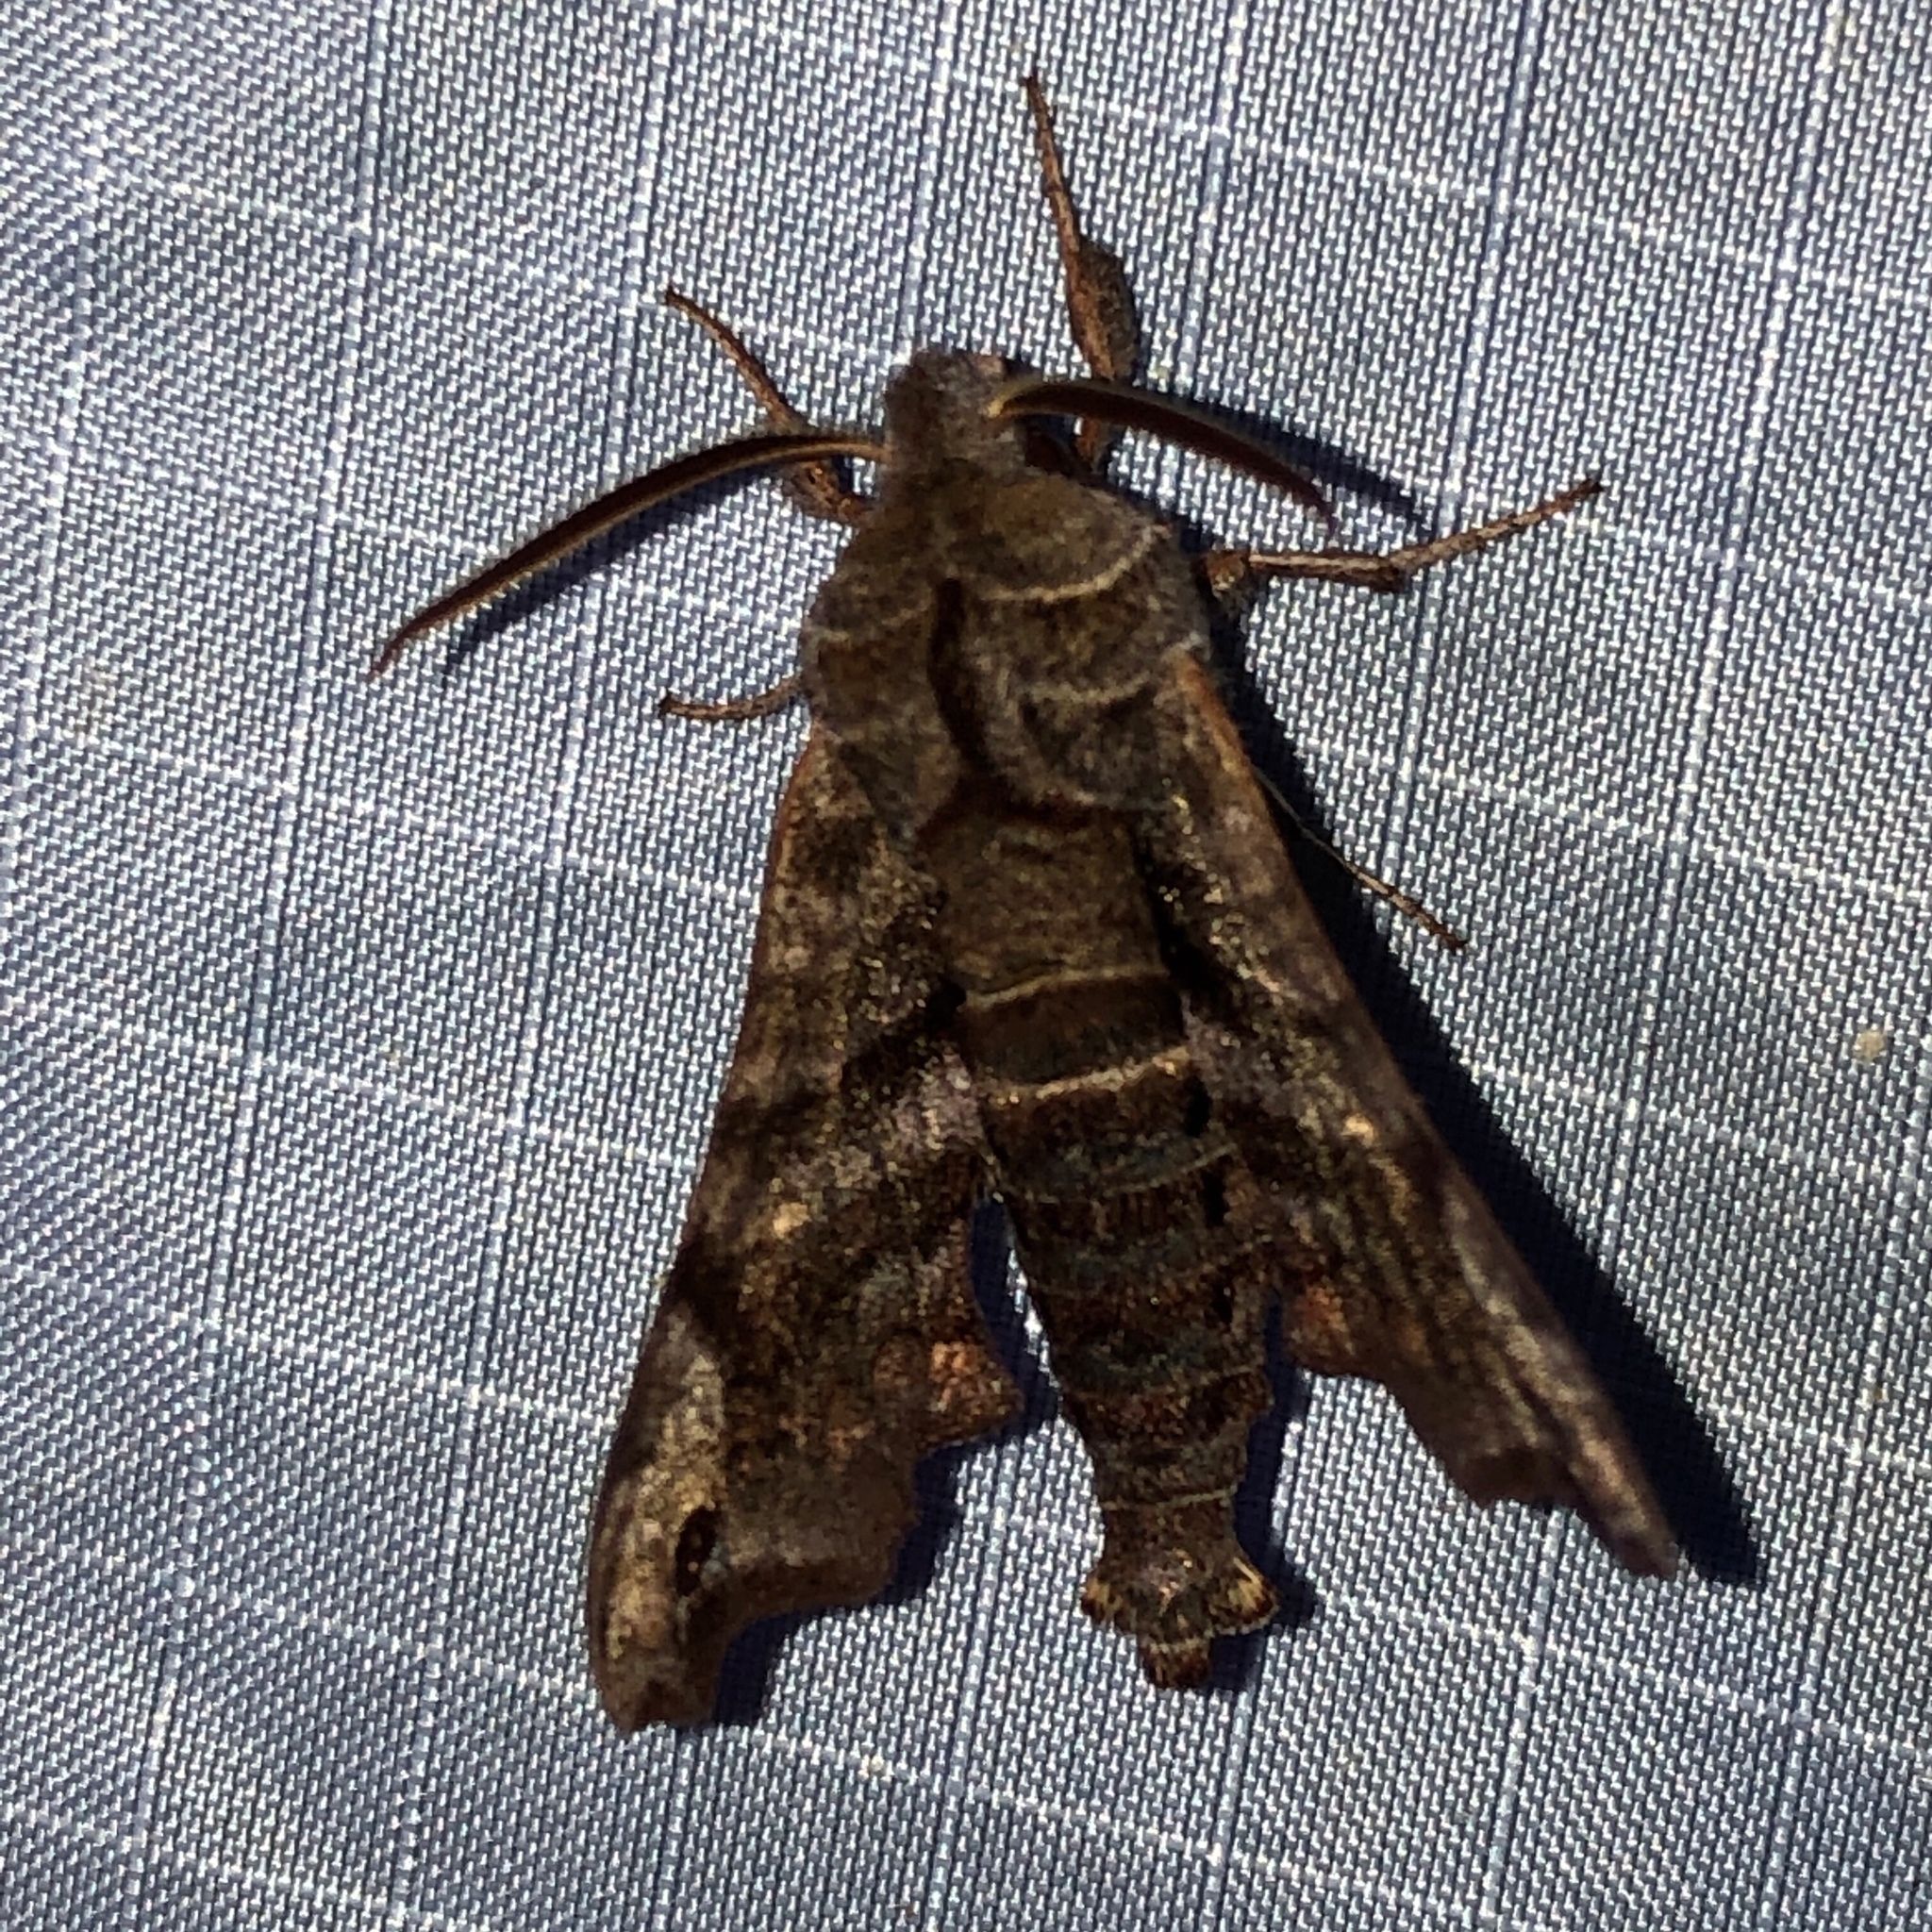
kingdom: Animalia
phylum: Arthropoda
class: Insecta
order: Lepidoptera
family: Sphingidae
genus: Deidamia
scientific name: Deidamia inscriptum
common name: Lettered sphinx
